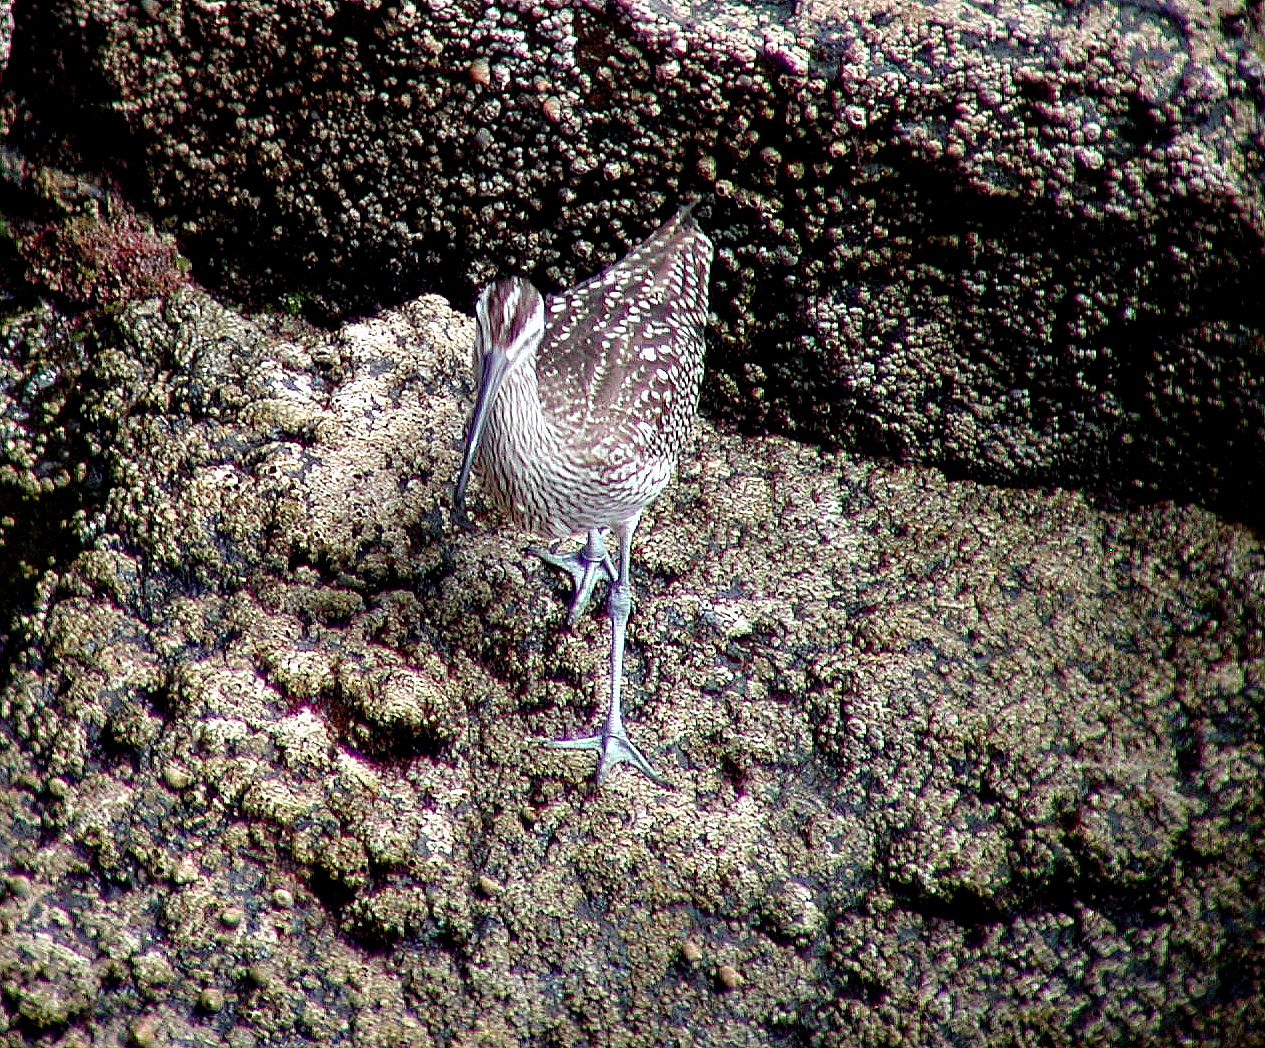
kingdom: Animalia
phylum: Chordata
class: Aves
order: Charadriiformes
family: Scolopacidae
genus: Numenius
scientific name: Numenius phaeopus
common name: Whimbrel
